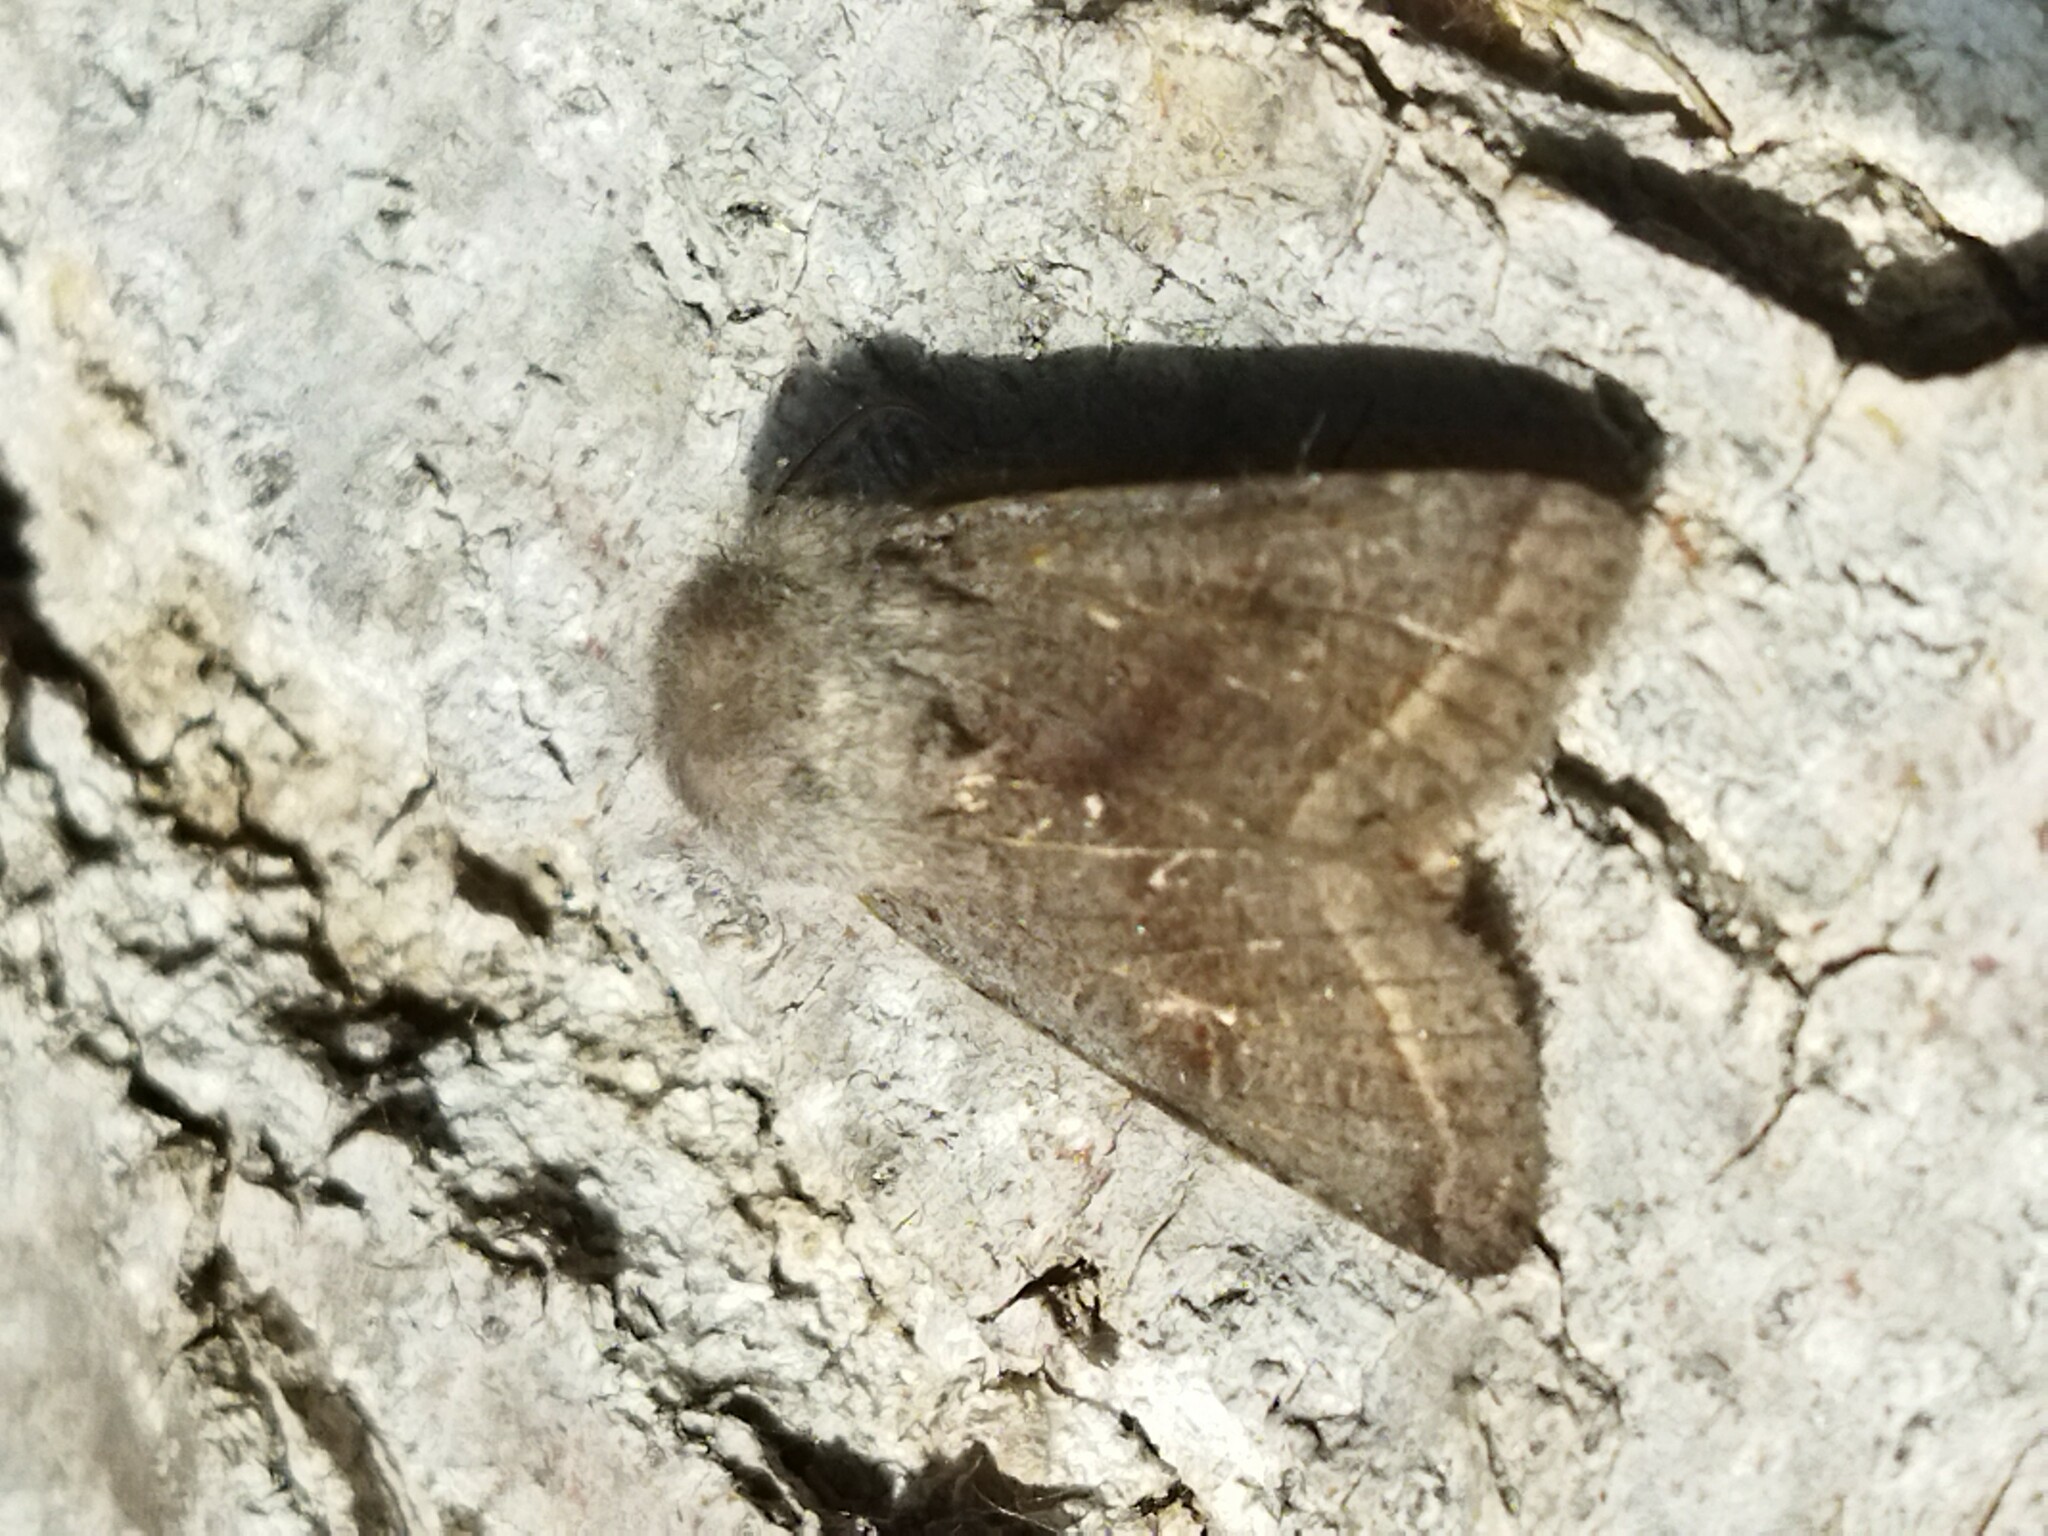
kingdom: Animalia
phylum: Arthropoda
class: Insecta
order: Lepidoptera
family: Noctuidae
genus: Orthosia
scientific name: Orthosia opima
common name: Northern drab
